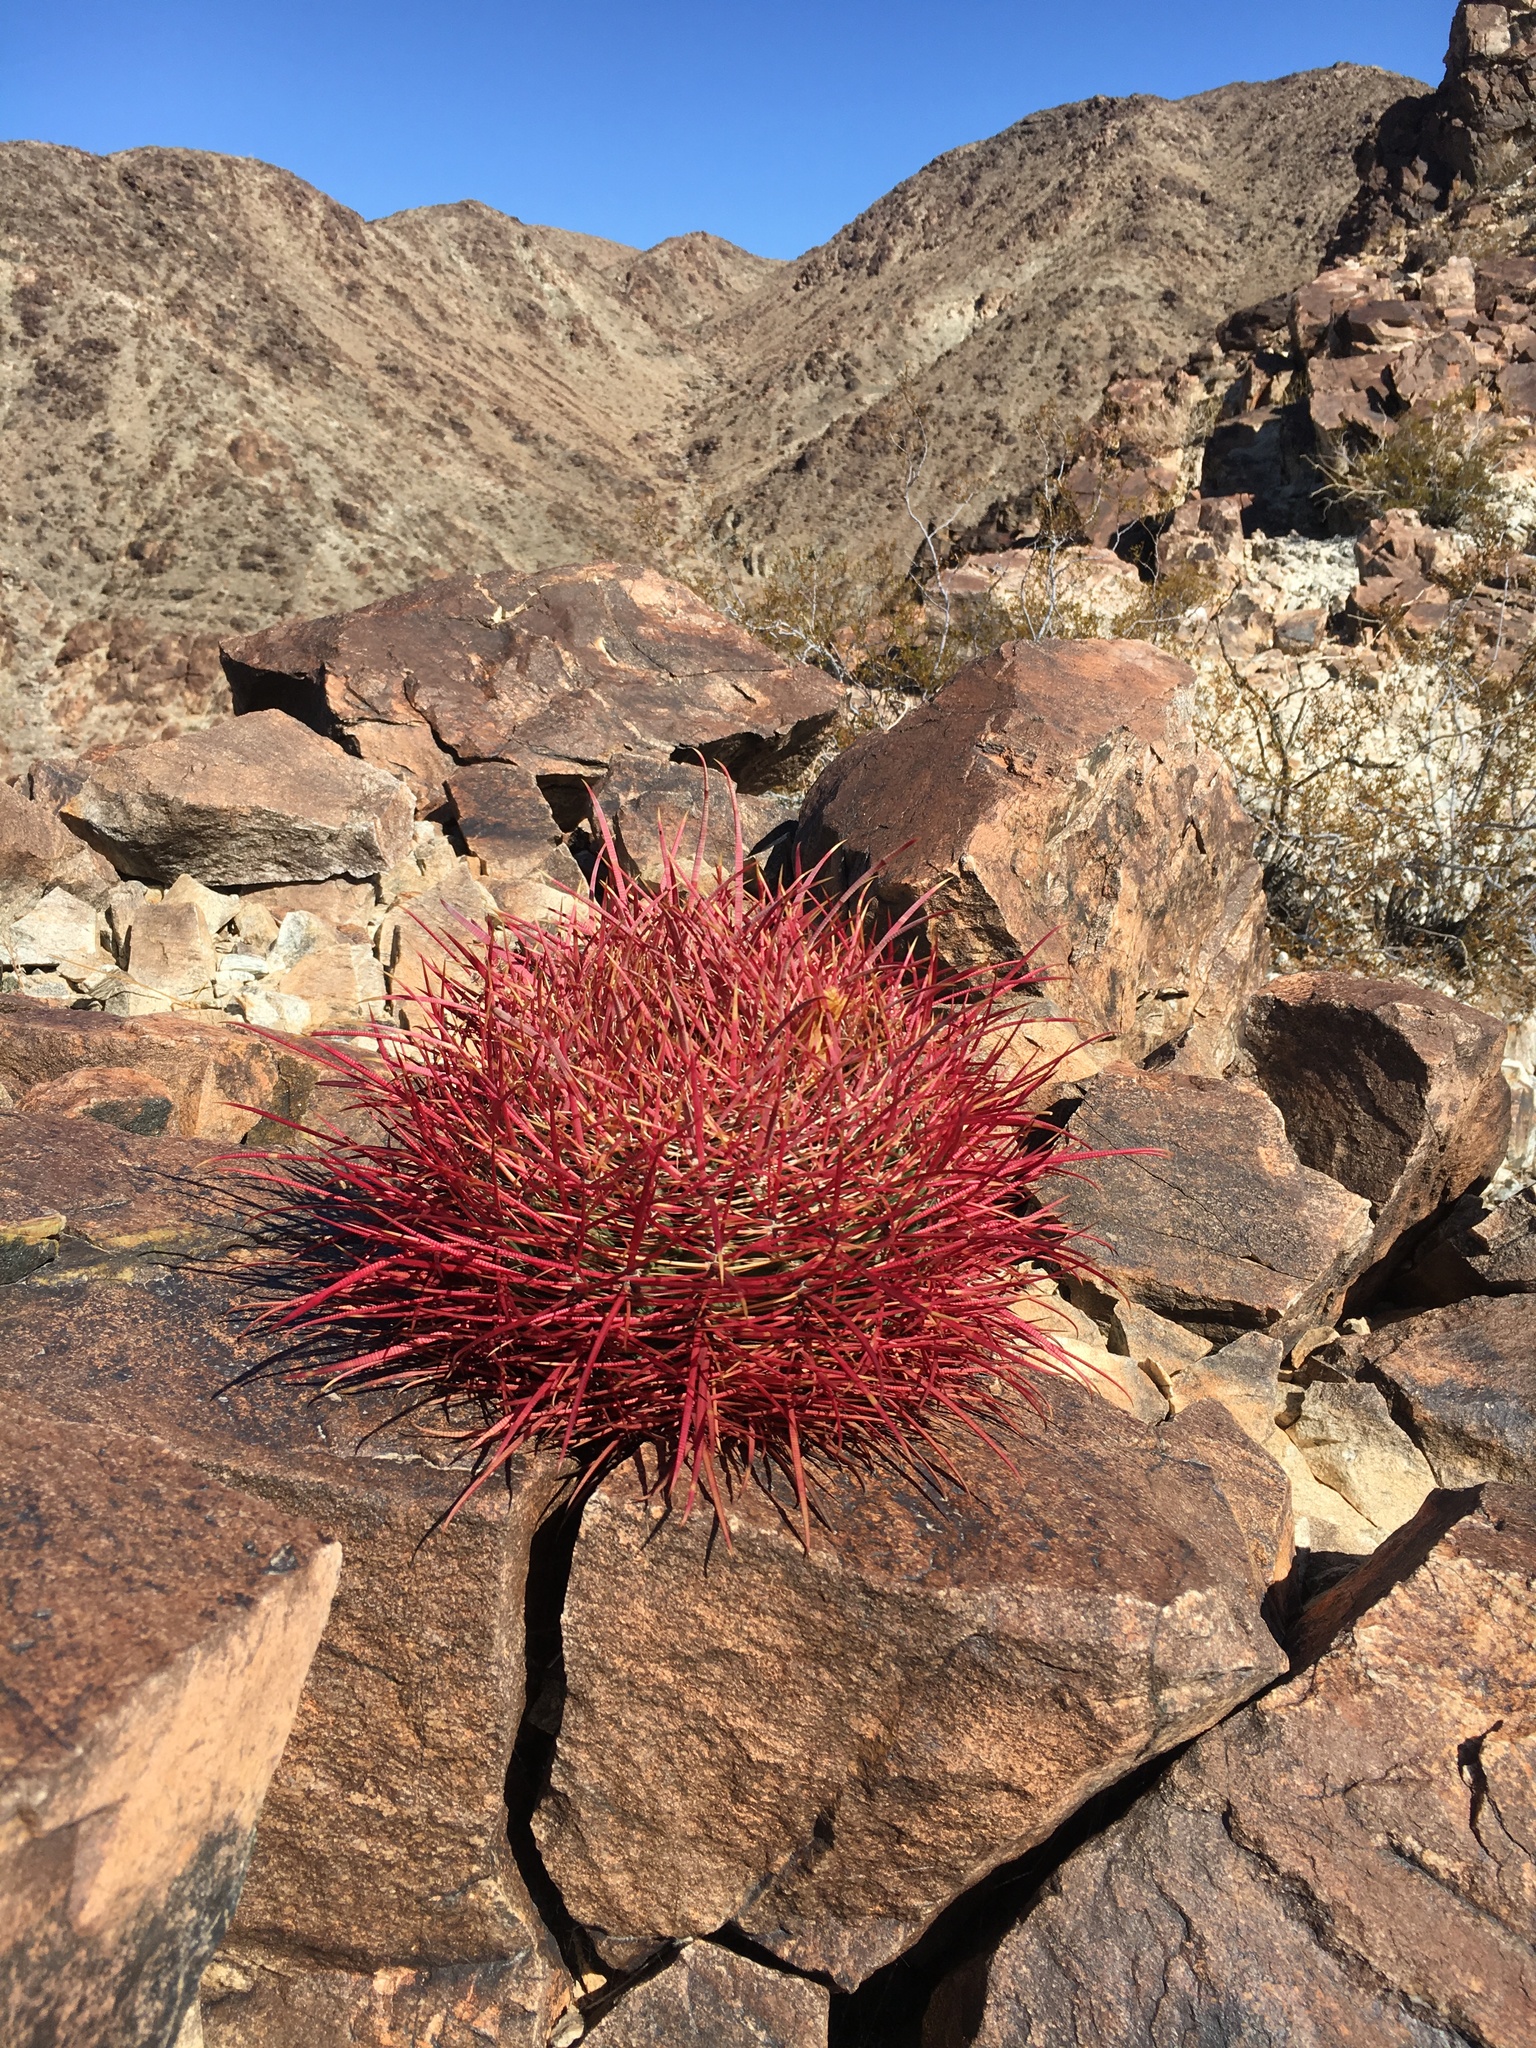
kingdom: Plantae
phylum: Tracheophyta
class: Magnoliopsida
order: Caryophyllales
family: Cactaceae
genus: Ferocactus
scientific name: Ferocactus cylindraceus
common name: California barrel cactus
